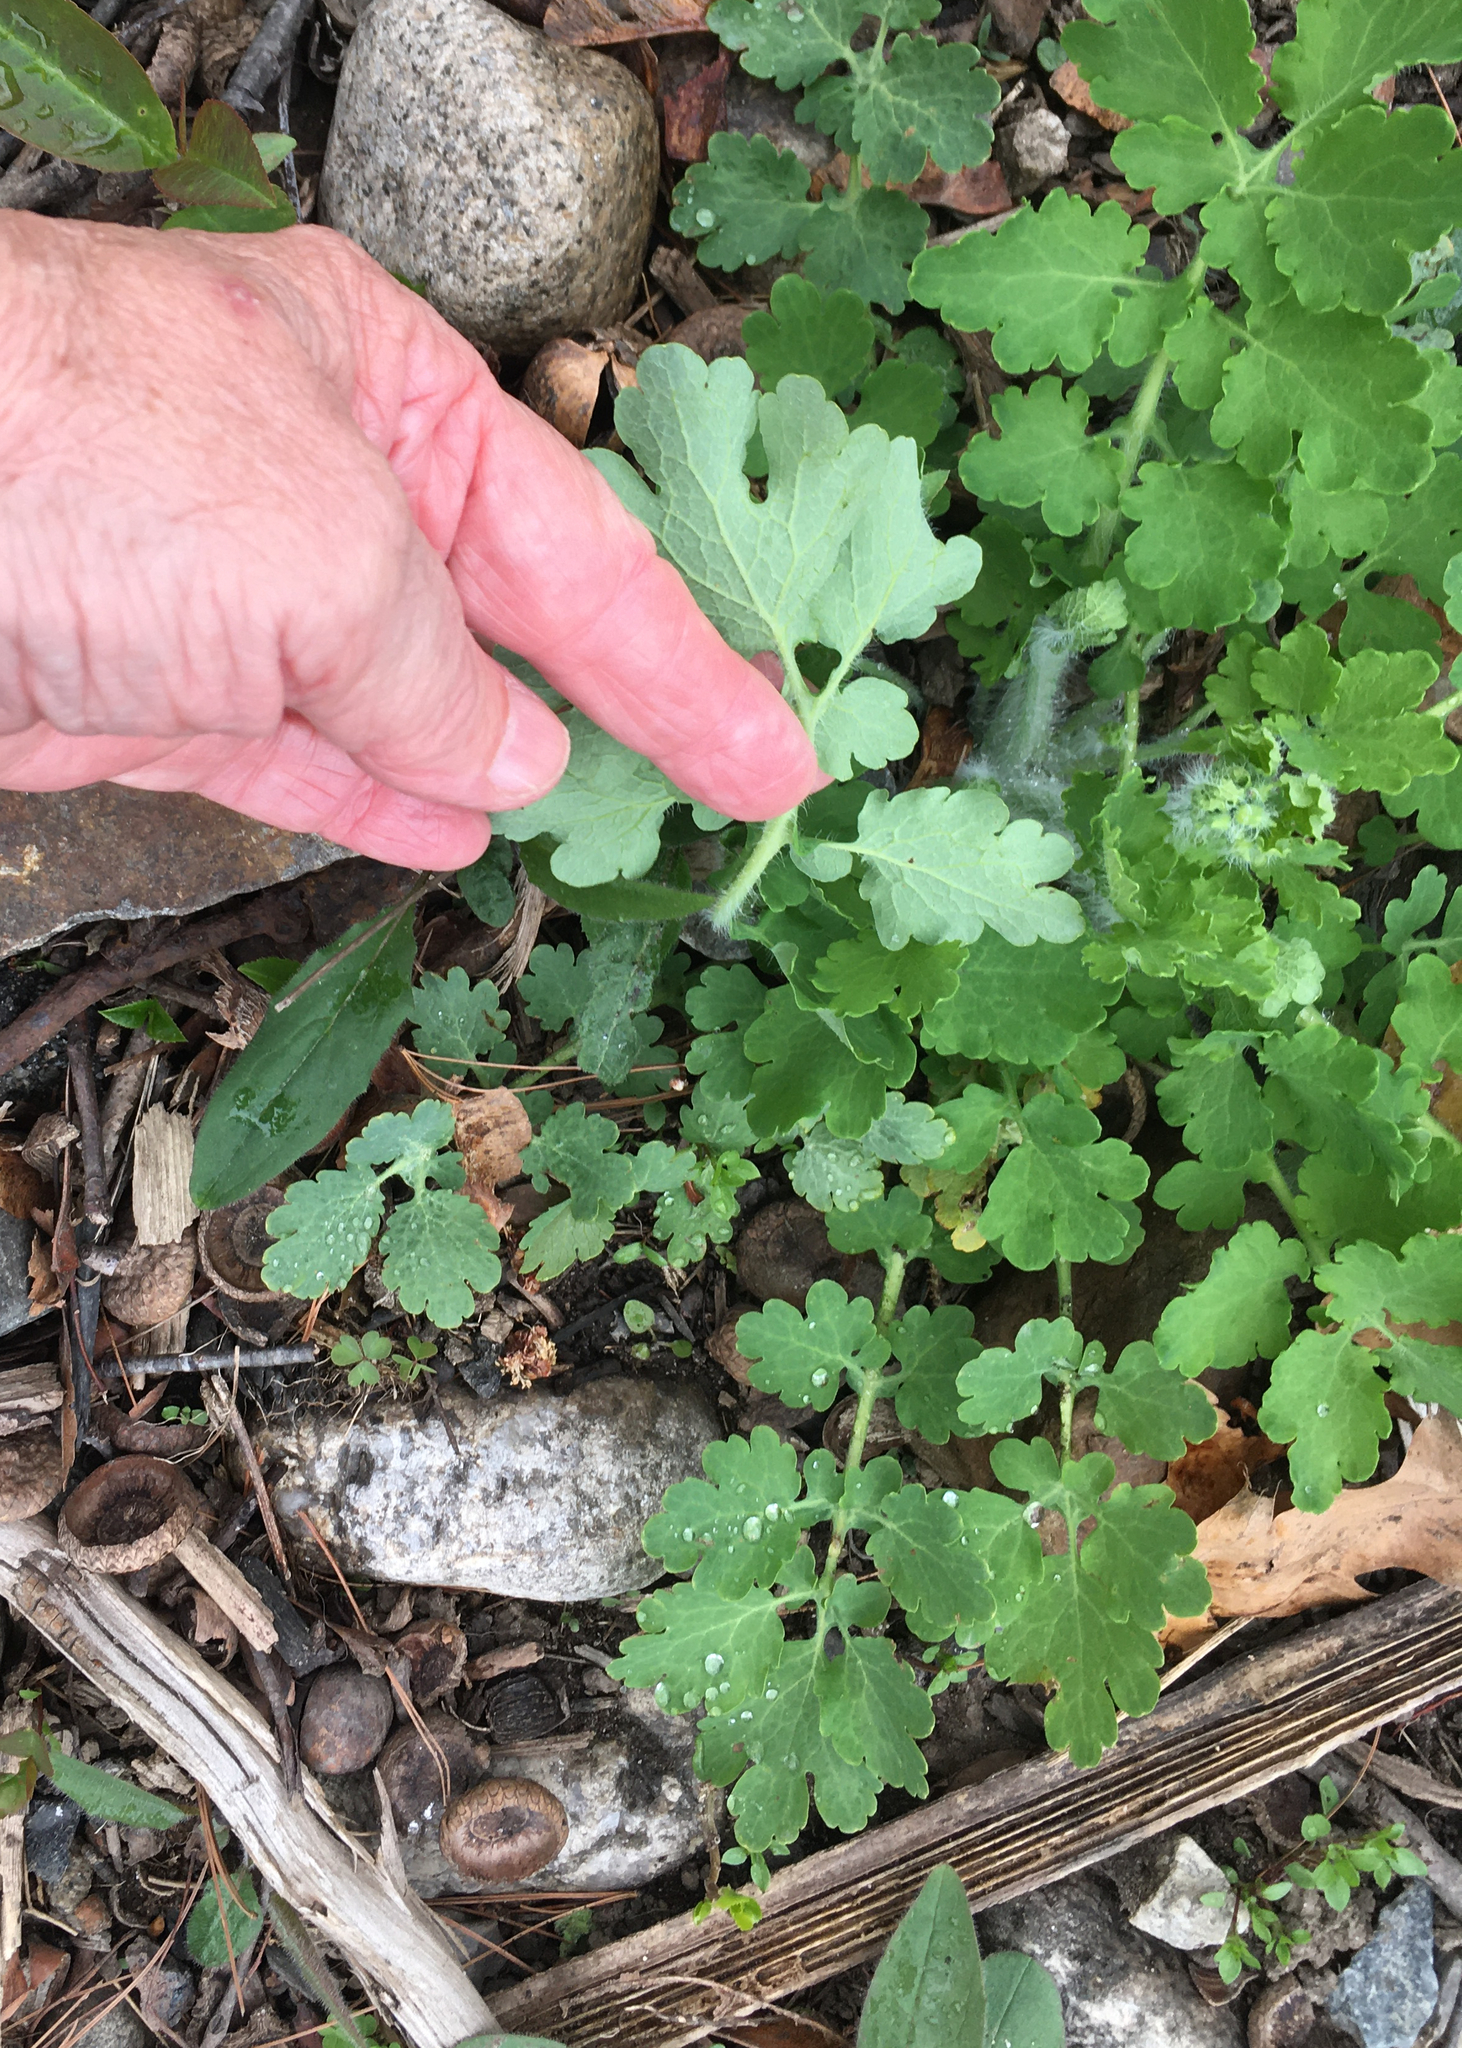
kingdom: Plantae
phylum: Tracheophyta
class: Magnoliopsida
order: Ranunculales
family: Papaveraceae
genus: Chelidonium
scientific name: Chelidonium majus
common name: Greater celandine
